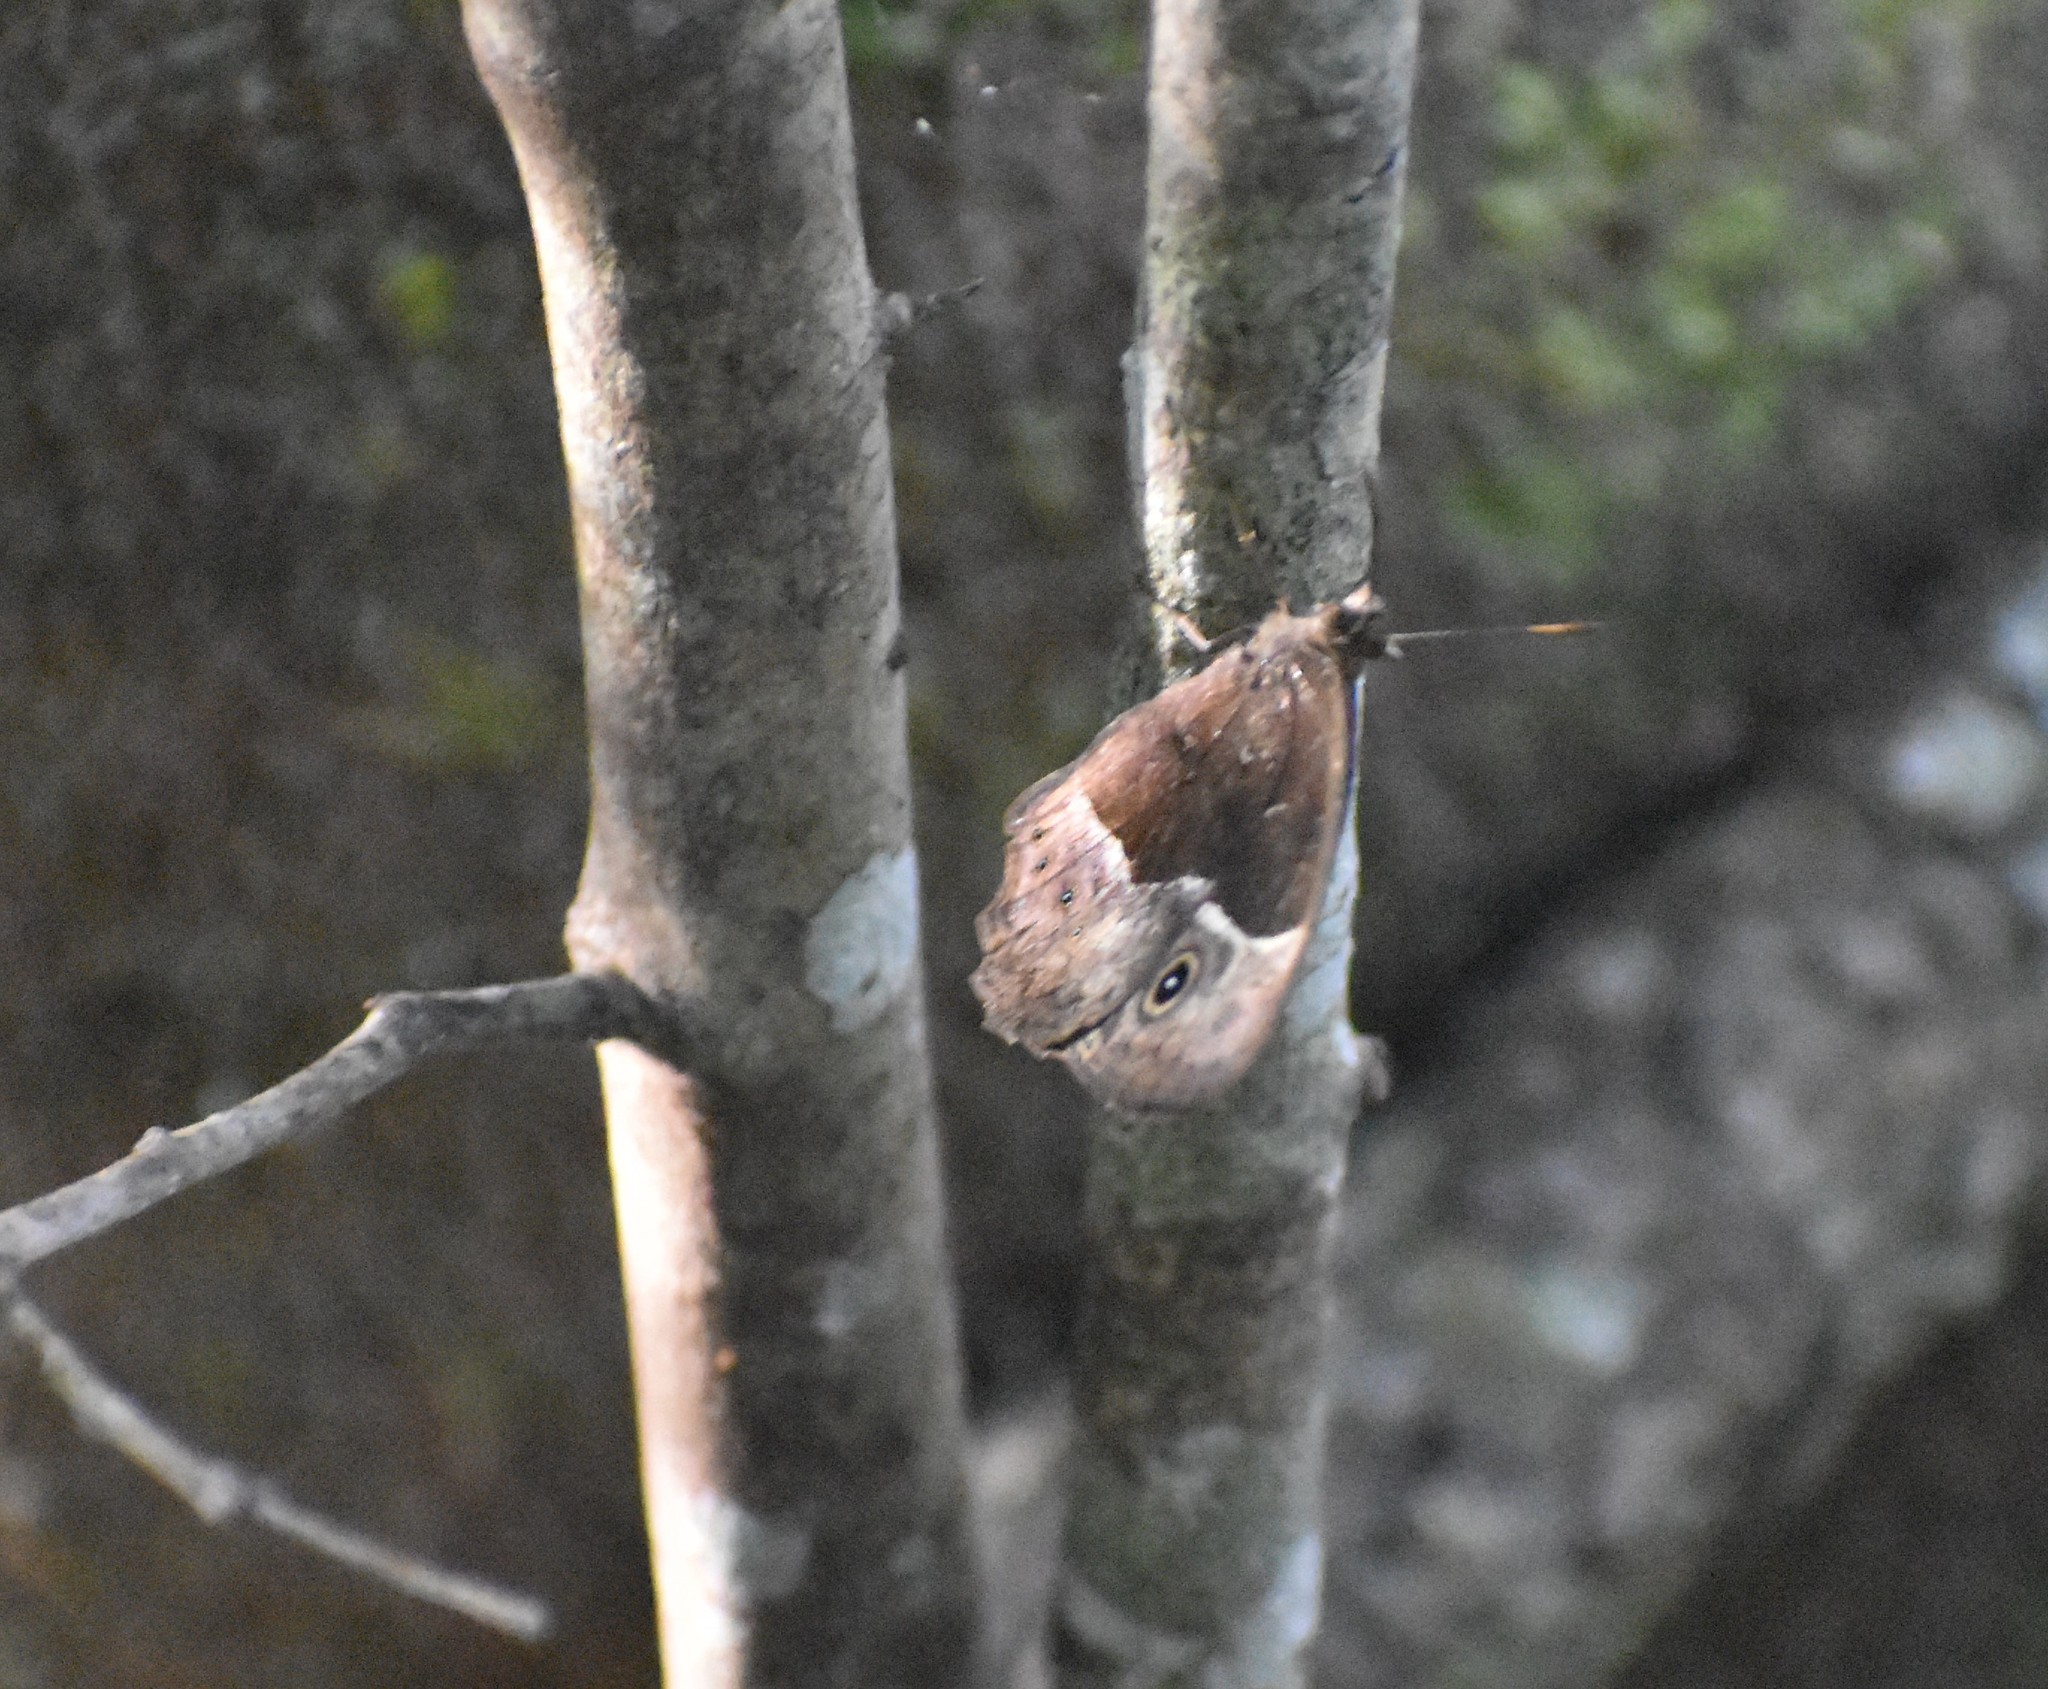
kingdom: Animalia
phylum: Arthropoda
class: Insecta
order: Lepidoptera
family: Nymphalidae
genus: Mycalesis
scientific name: Mycalesis rhacotis
